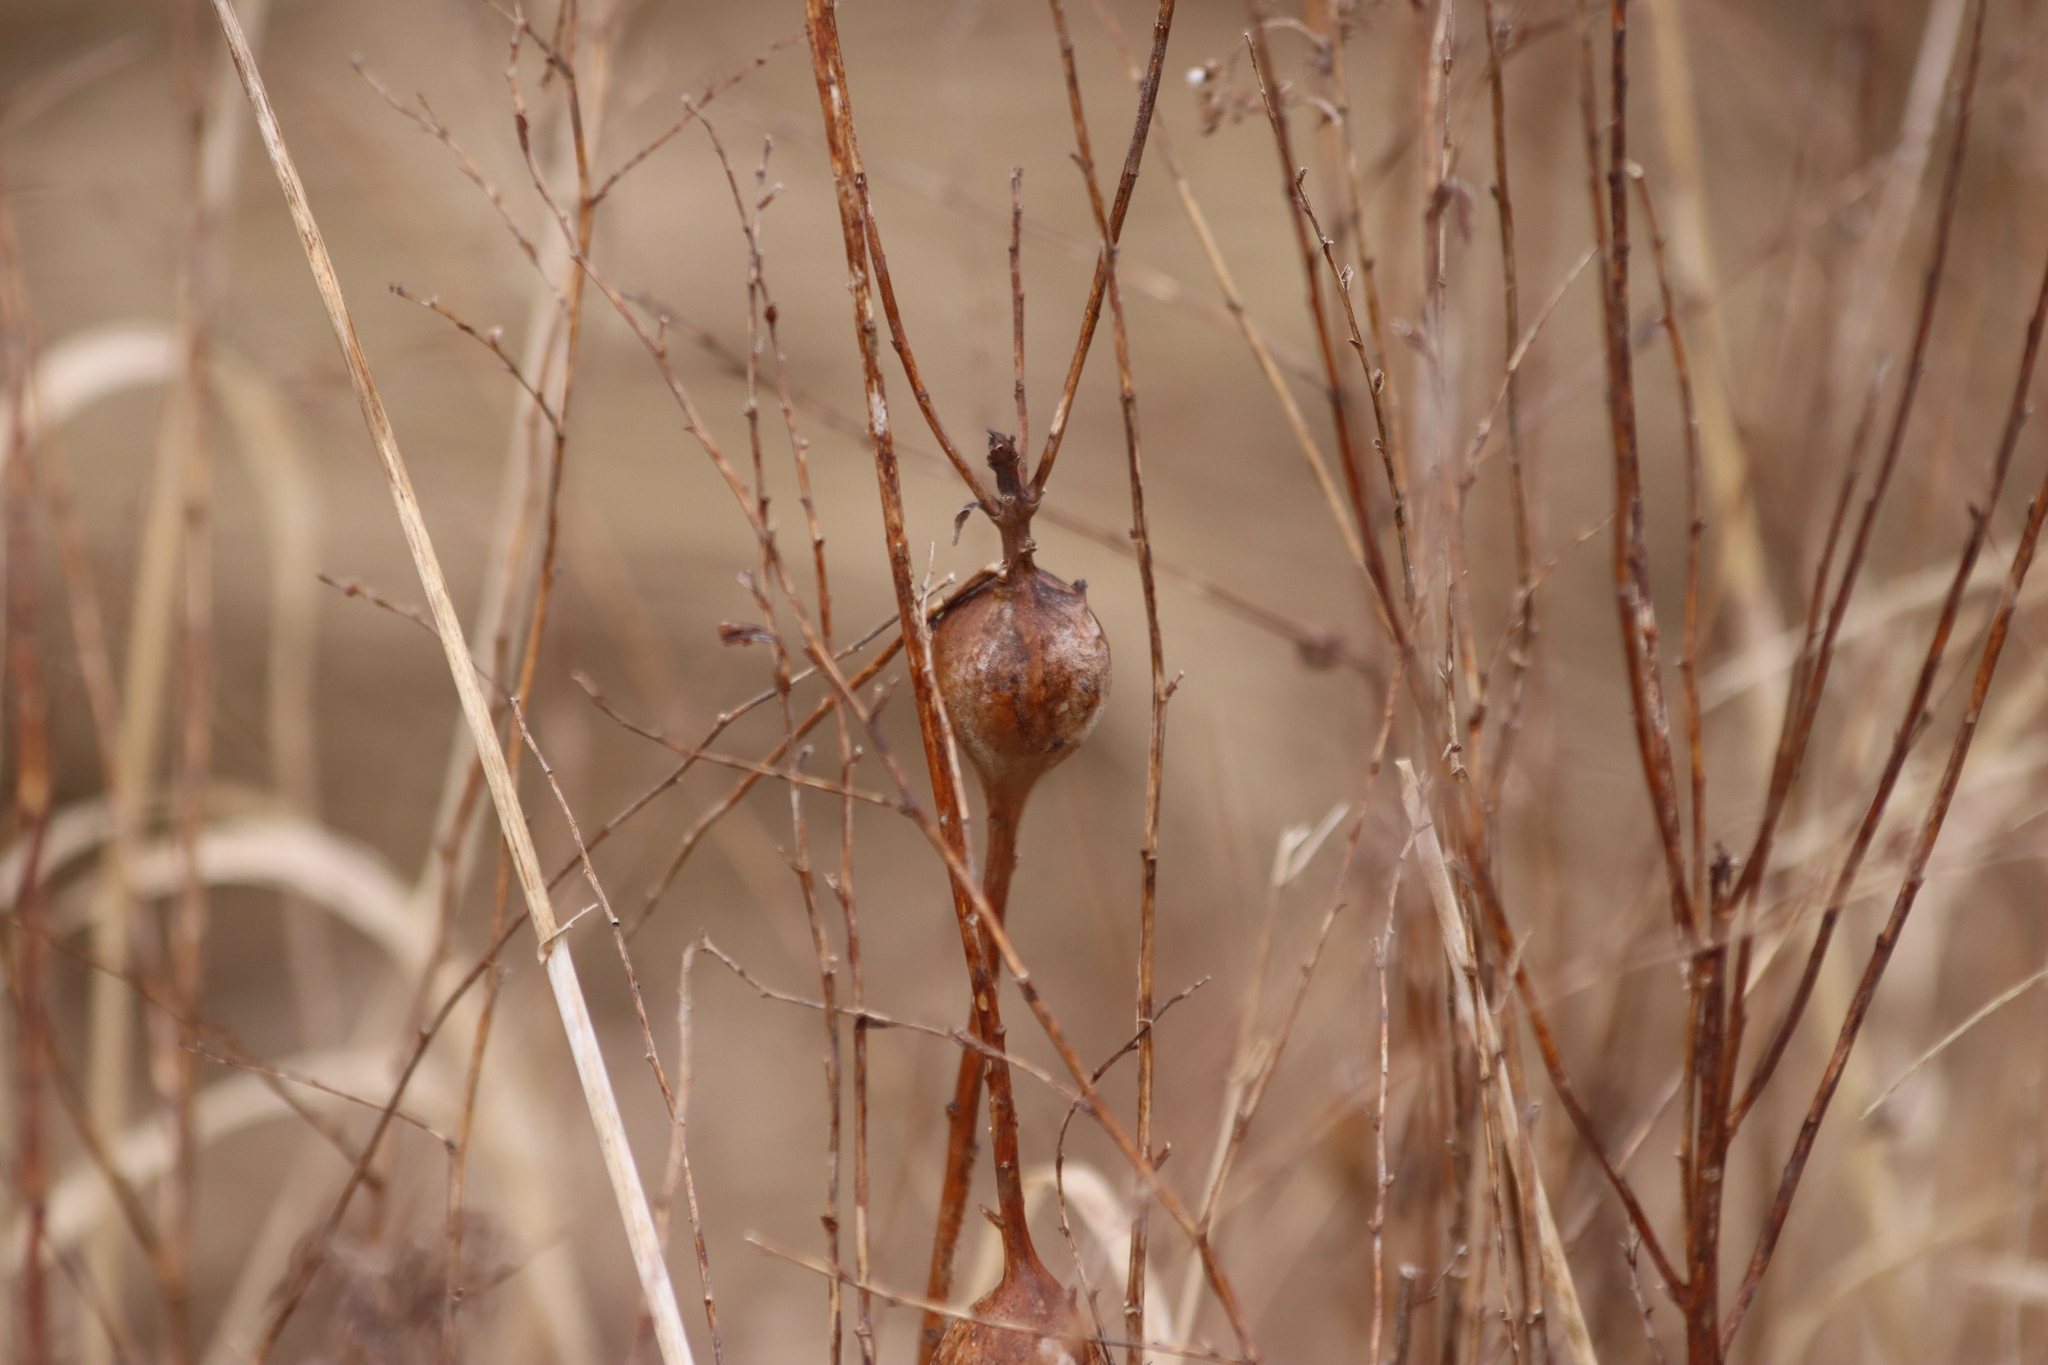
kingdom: Animalia
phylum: Arthropoda
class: Insecta
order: Diptera
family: Tephritidae
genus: Eurosta
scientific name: Eurosta solidaginis
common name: Goldenrod gall fly
